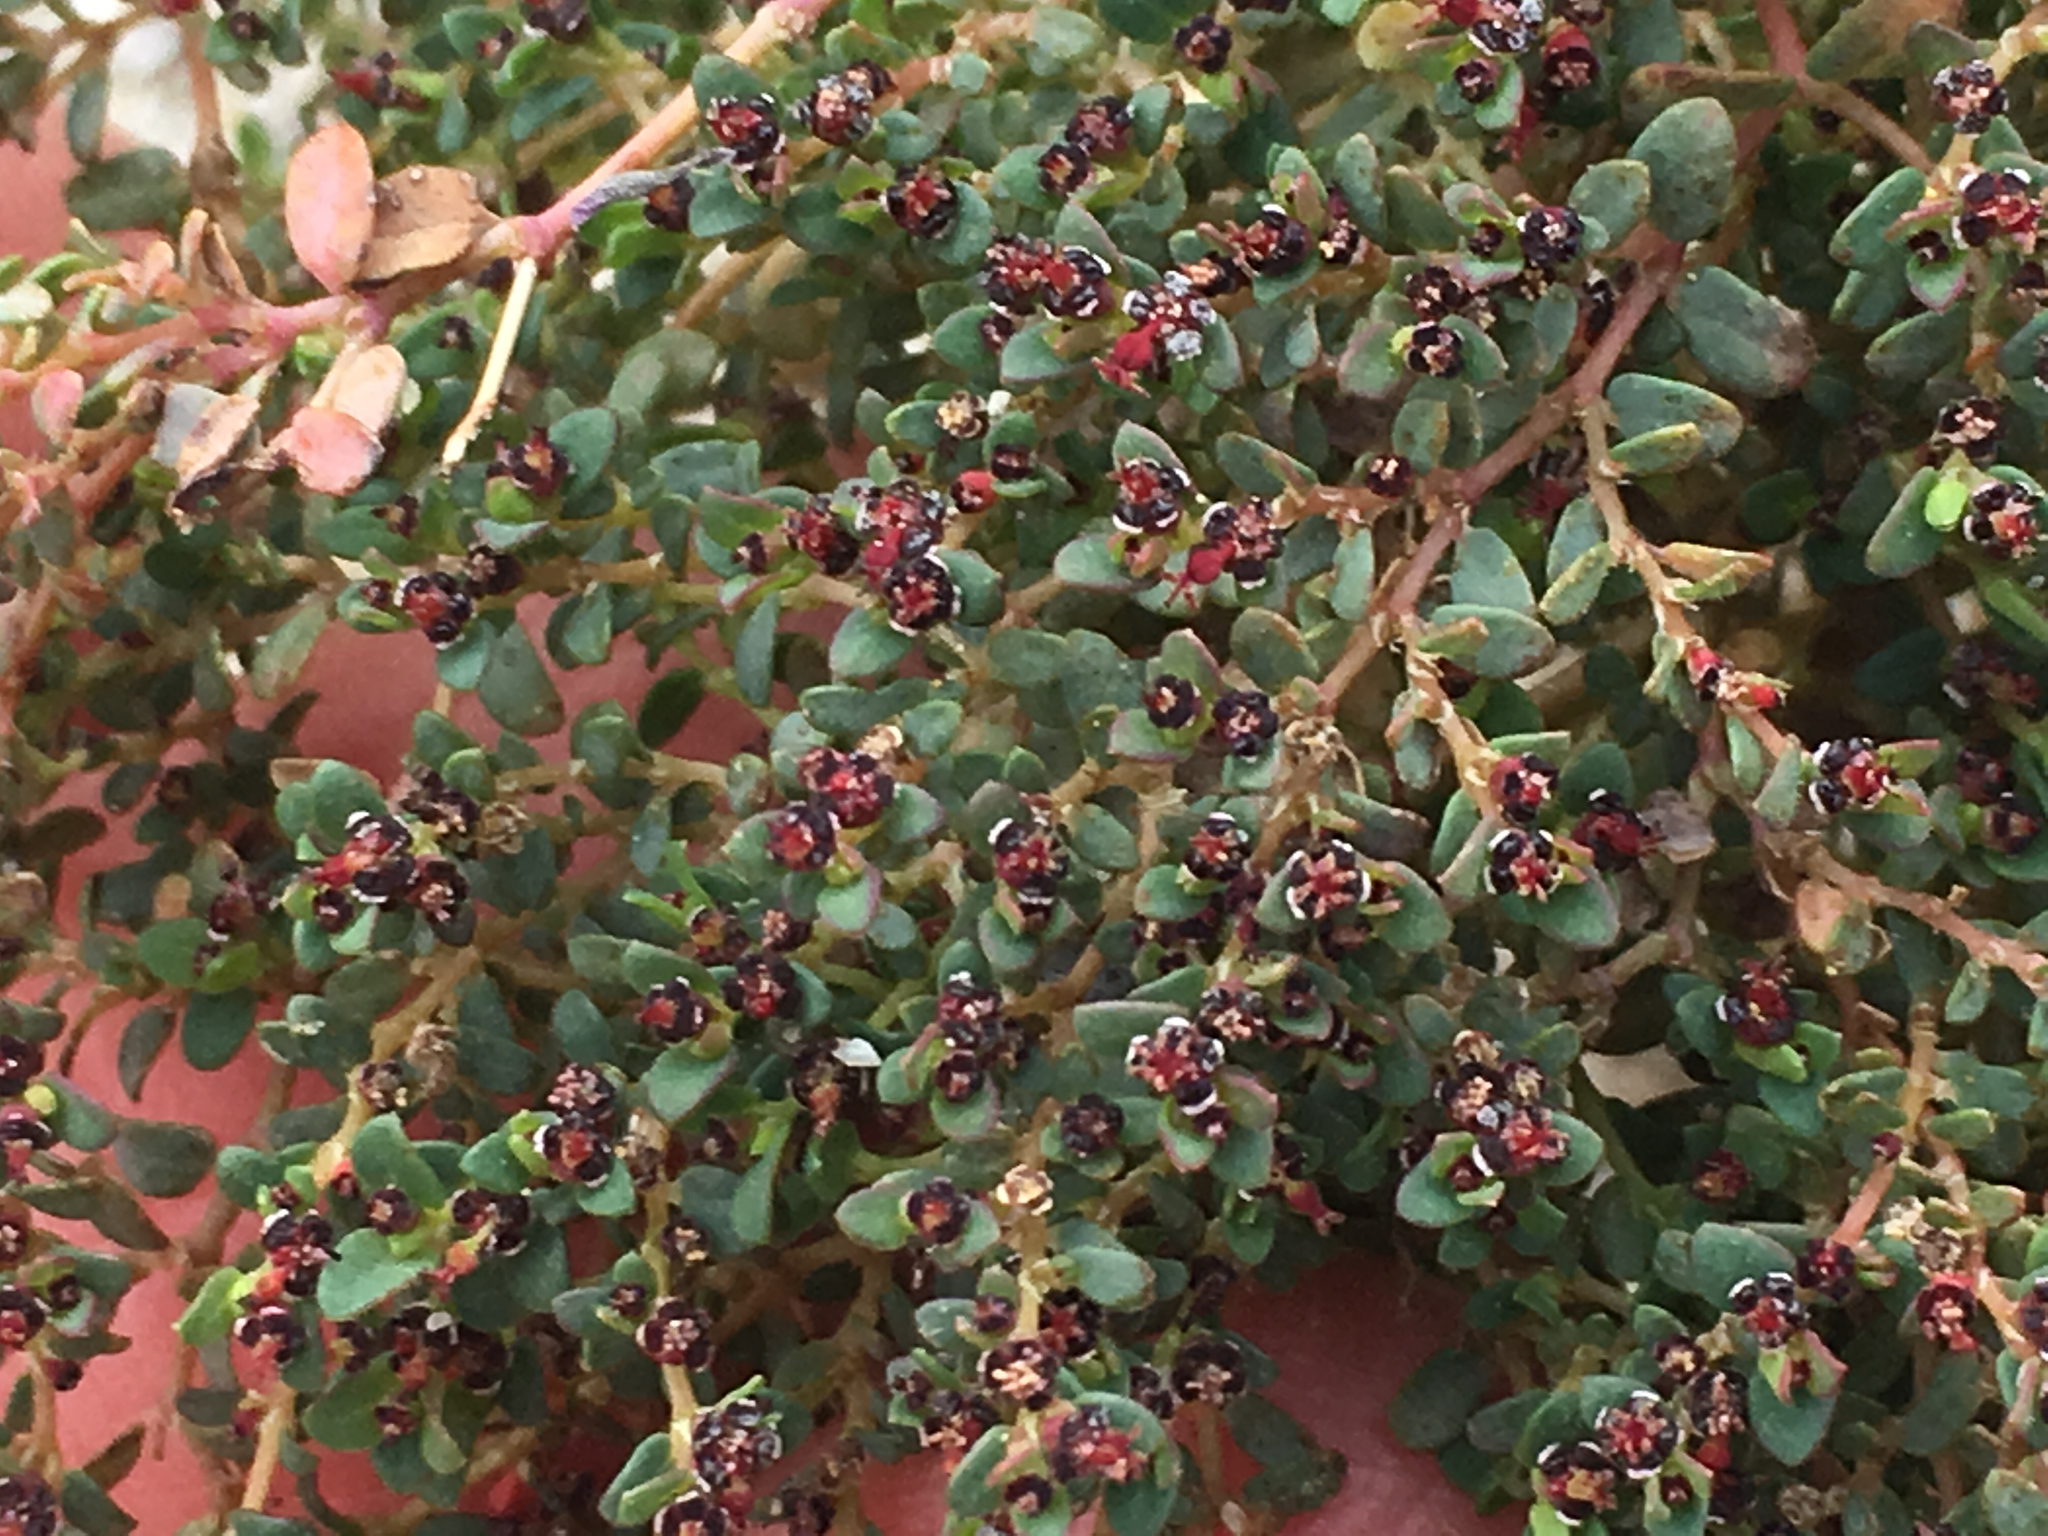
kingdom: Plantae
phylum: Tracheophyta
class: Magnoliopsida
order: Malpighiales
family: Euphorbiaceae
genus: Euphorbia
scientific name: Euphorbia polycarpa
